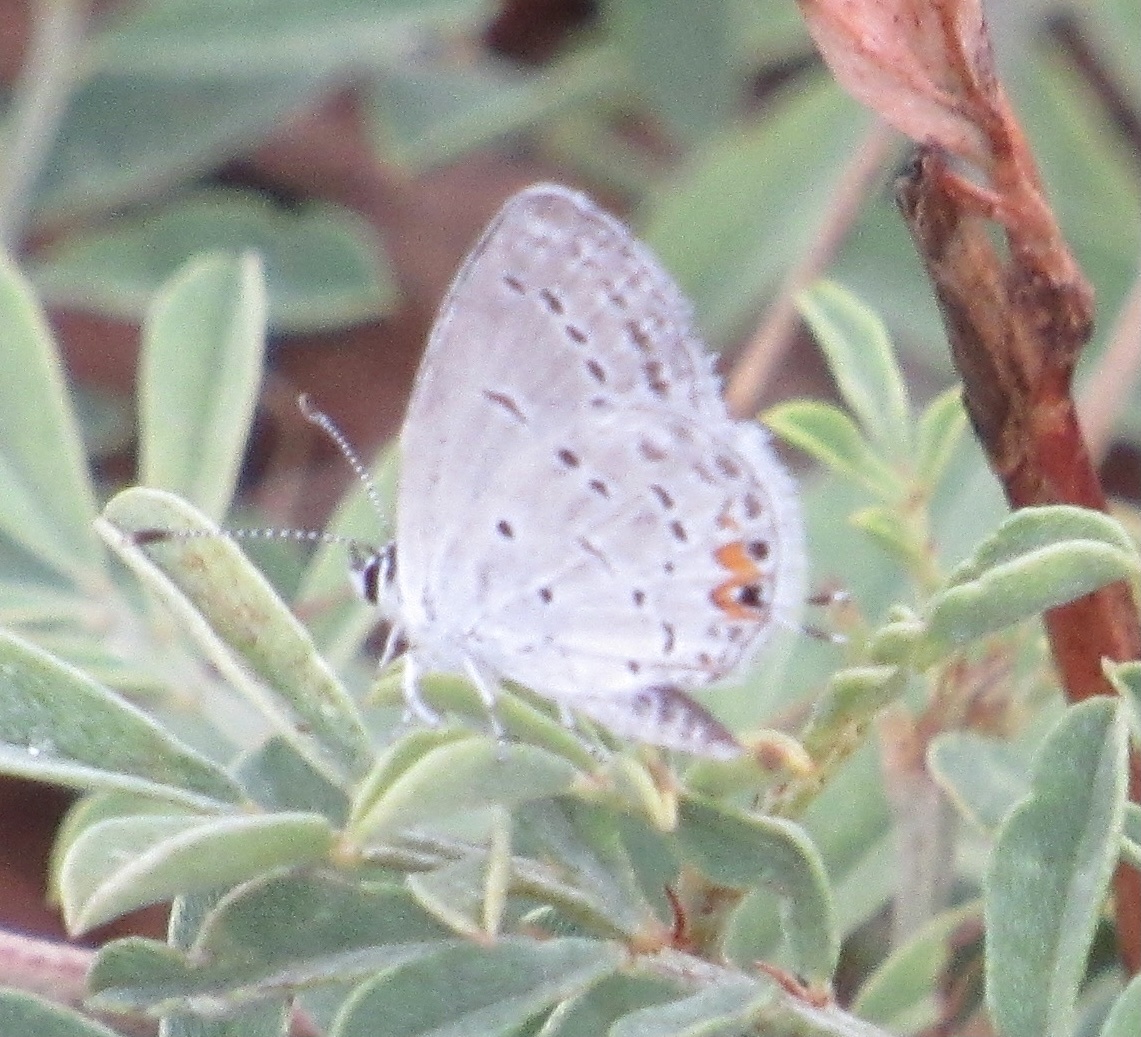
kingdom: Animalia
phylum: Arthropoda
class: Insecta
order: Lepidoptera
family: Lycaenidae
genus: Elkalyce
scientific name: Elkalyce comyntas
